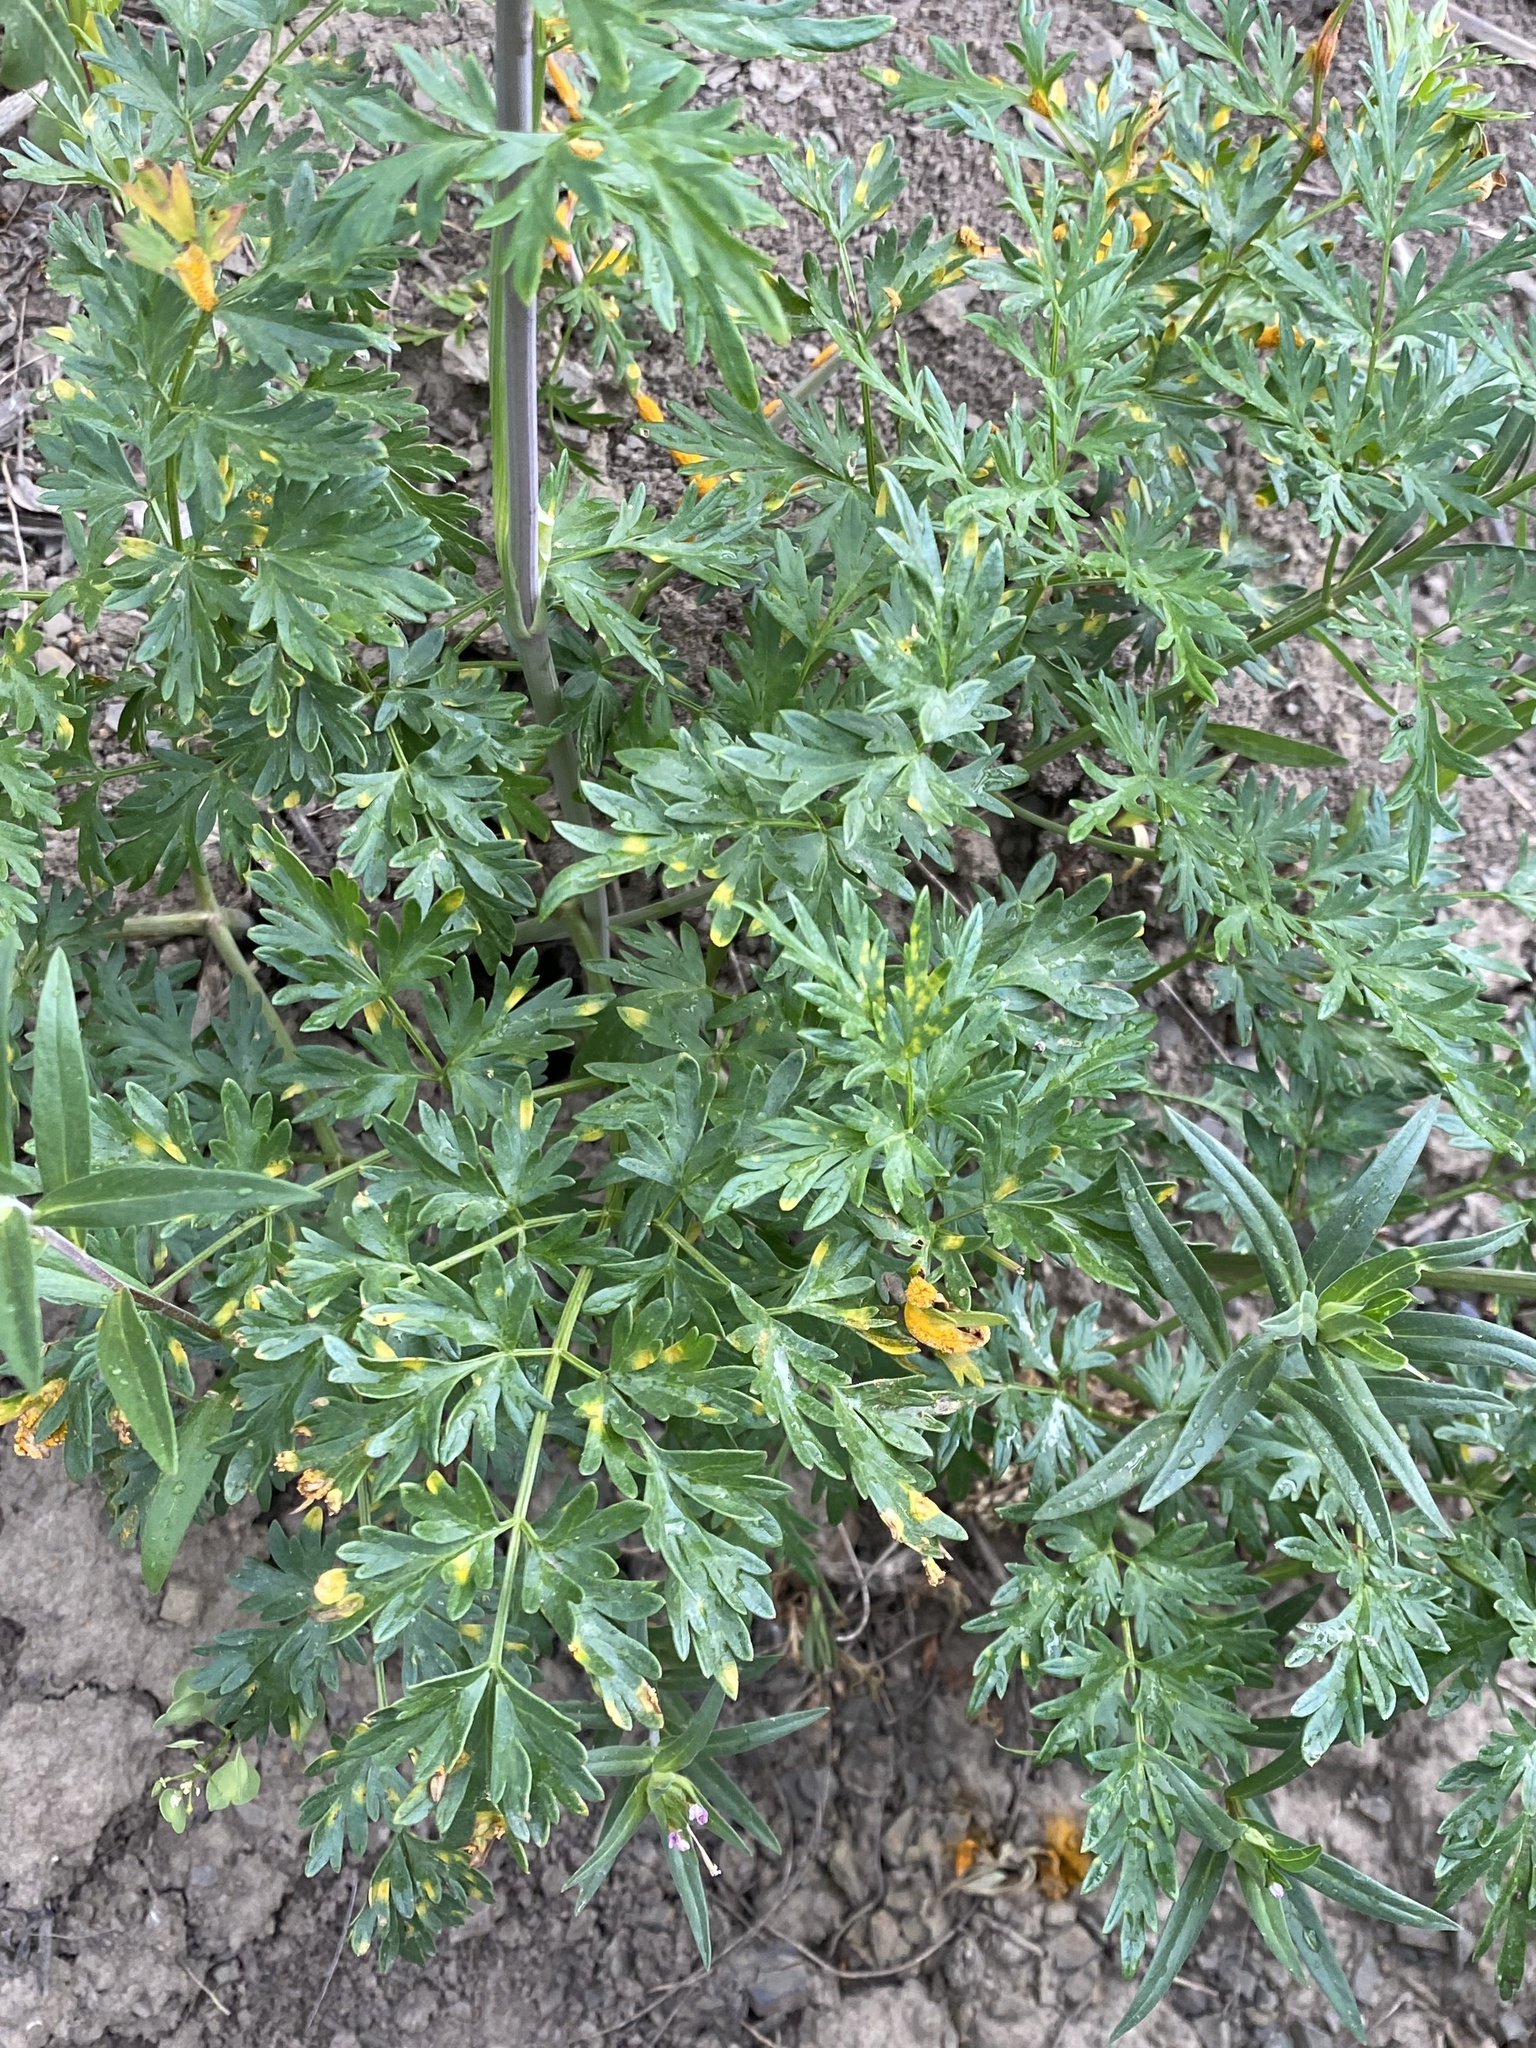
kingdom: Plantae
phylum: Tracheophyta
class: Magnoliopsida
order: Apiales
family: Apiaceae
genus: Lomatium
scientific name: Lomatium multifidum
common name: Carrot-leaved biscuitroot
